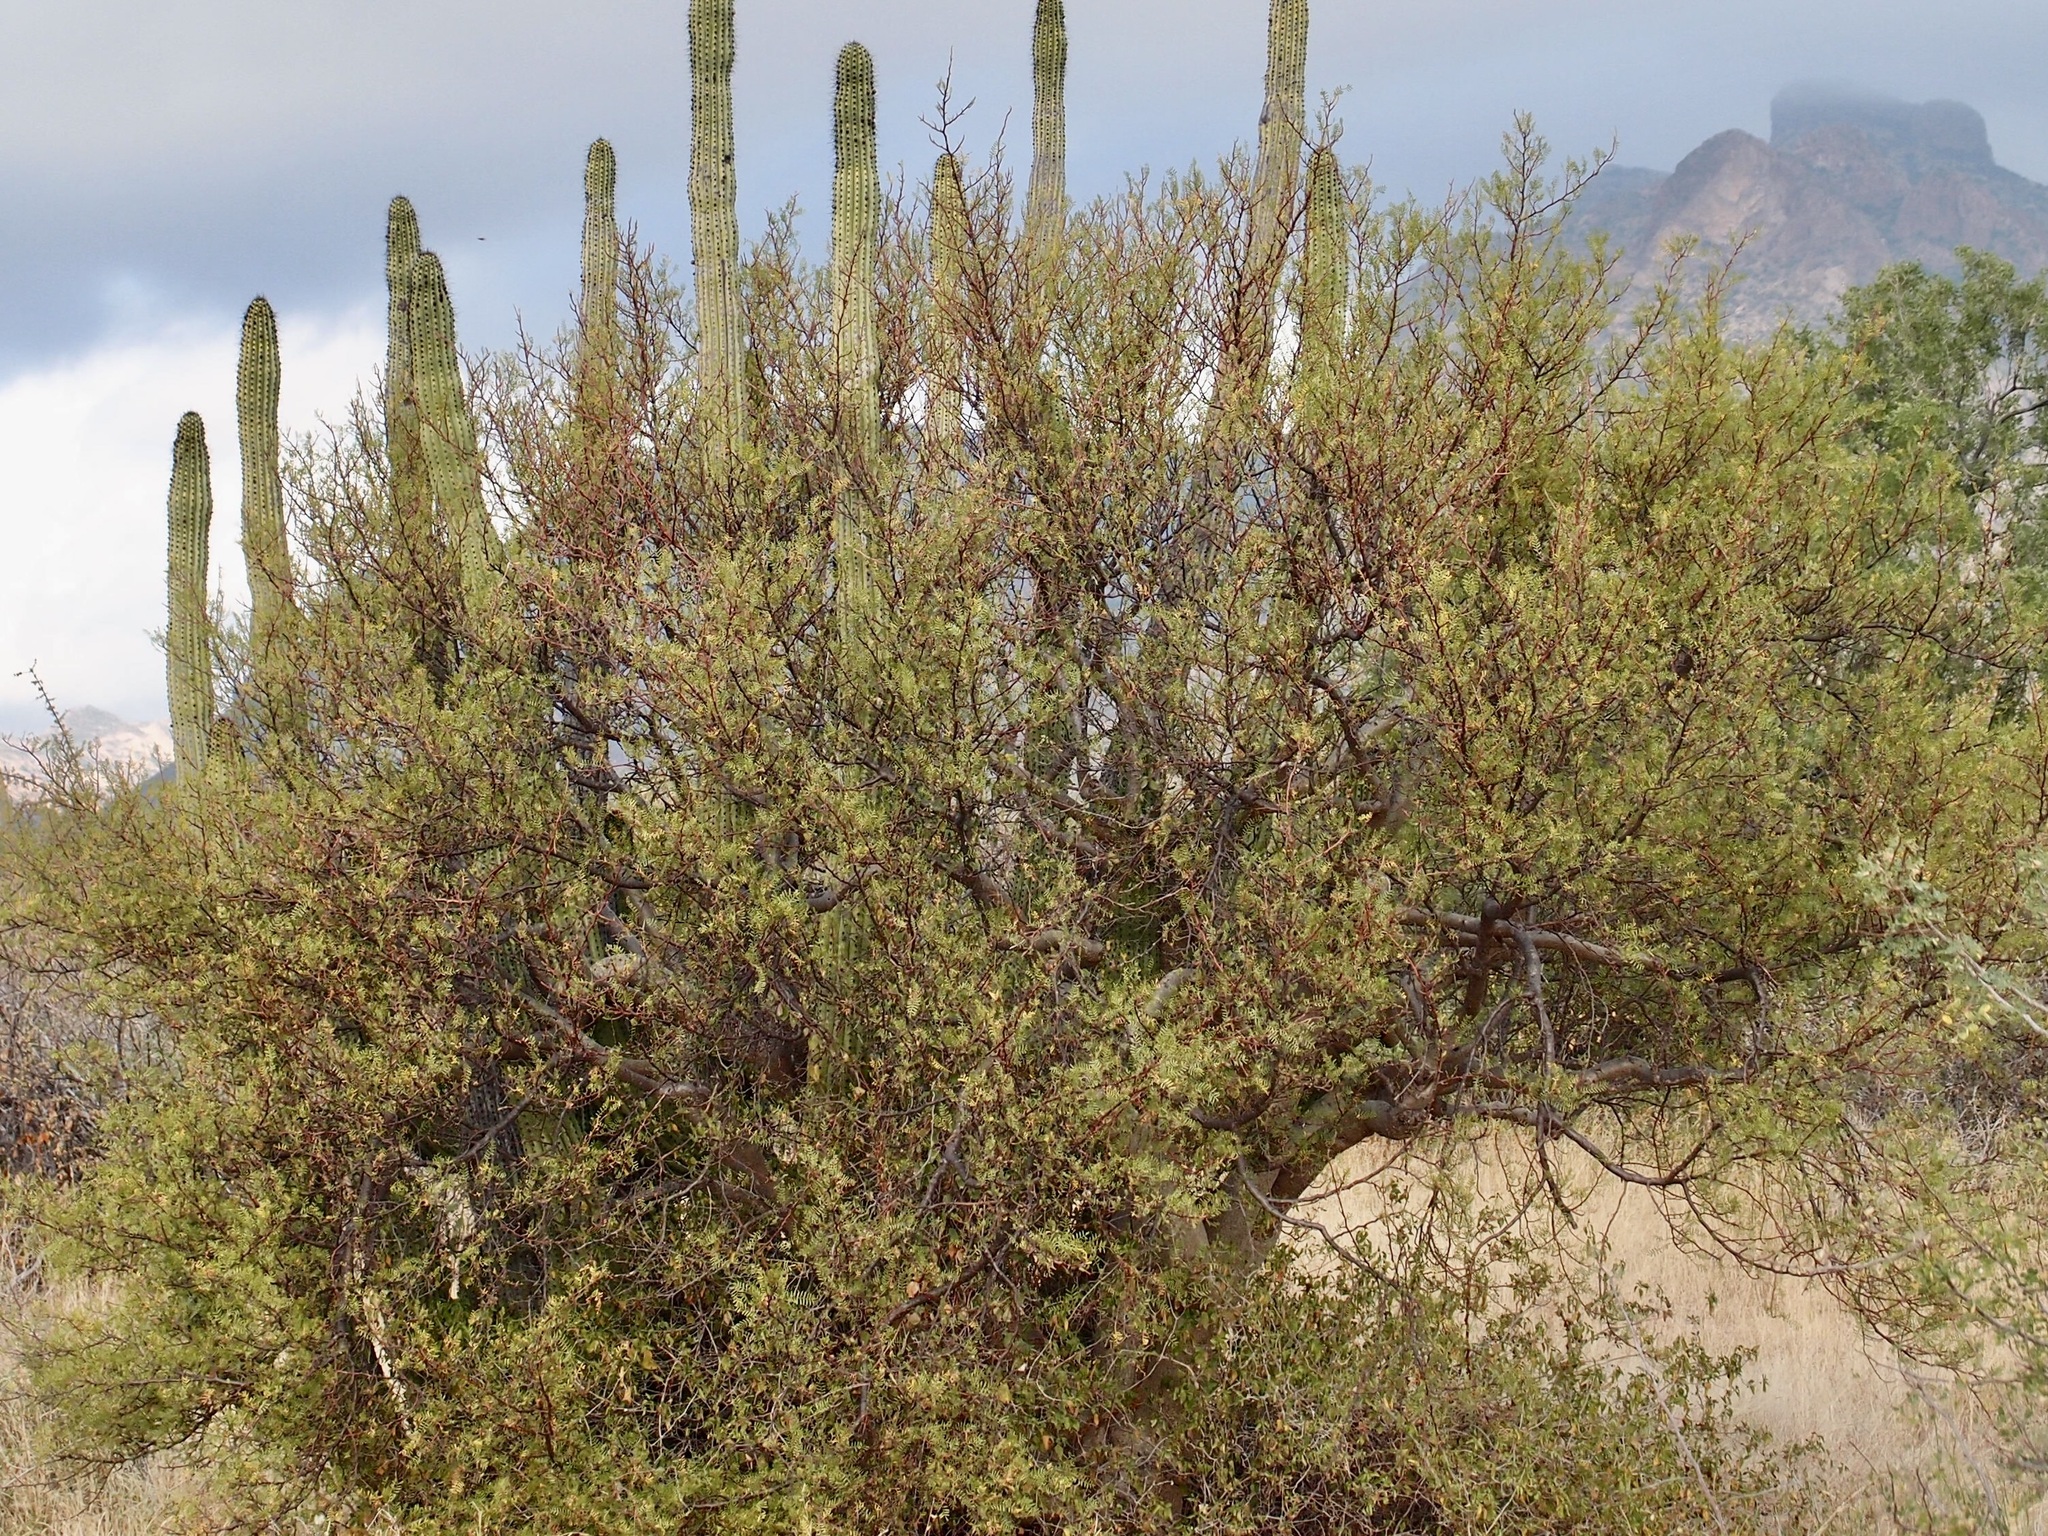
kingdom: Plantae
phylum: Tracheophyta
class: Magnoliopsida
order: Sapindales
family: Burseraceae
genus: Bursera
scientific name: Bursera microphylla
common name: Elephant tree
